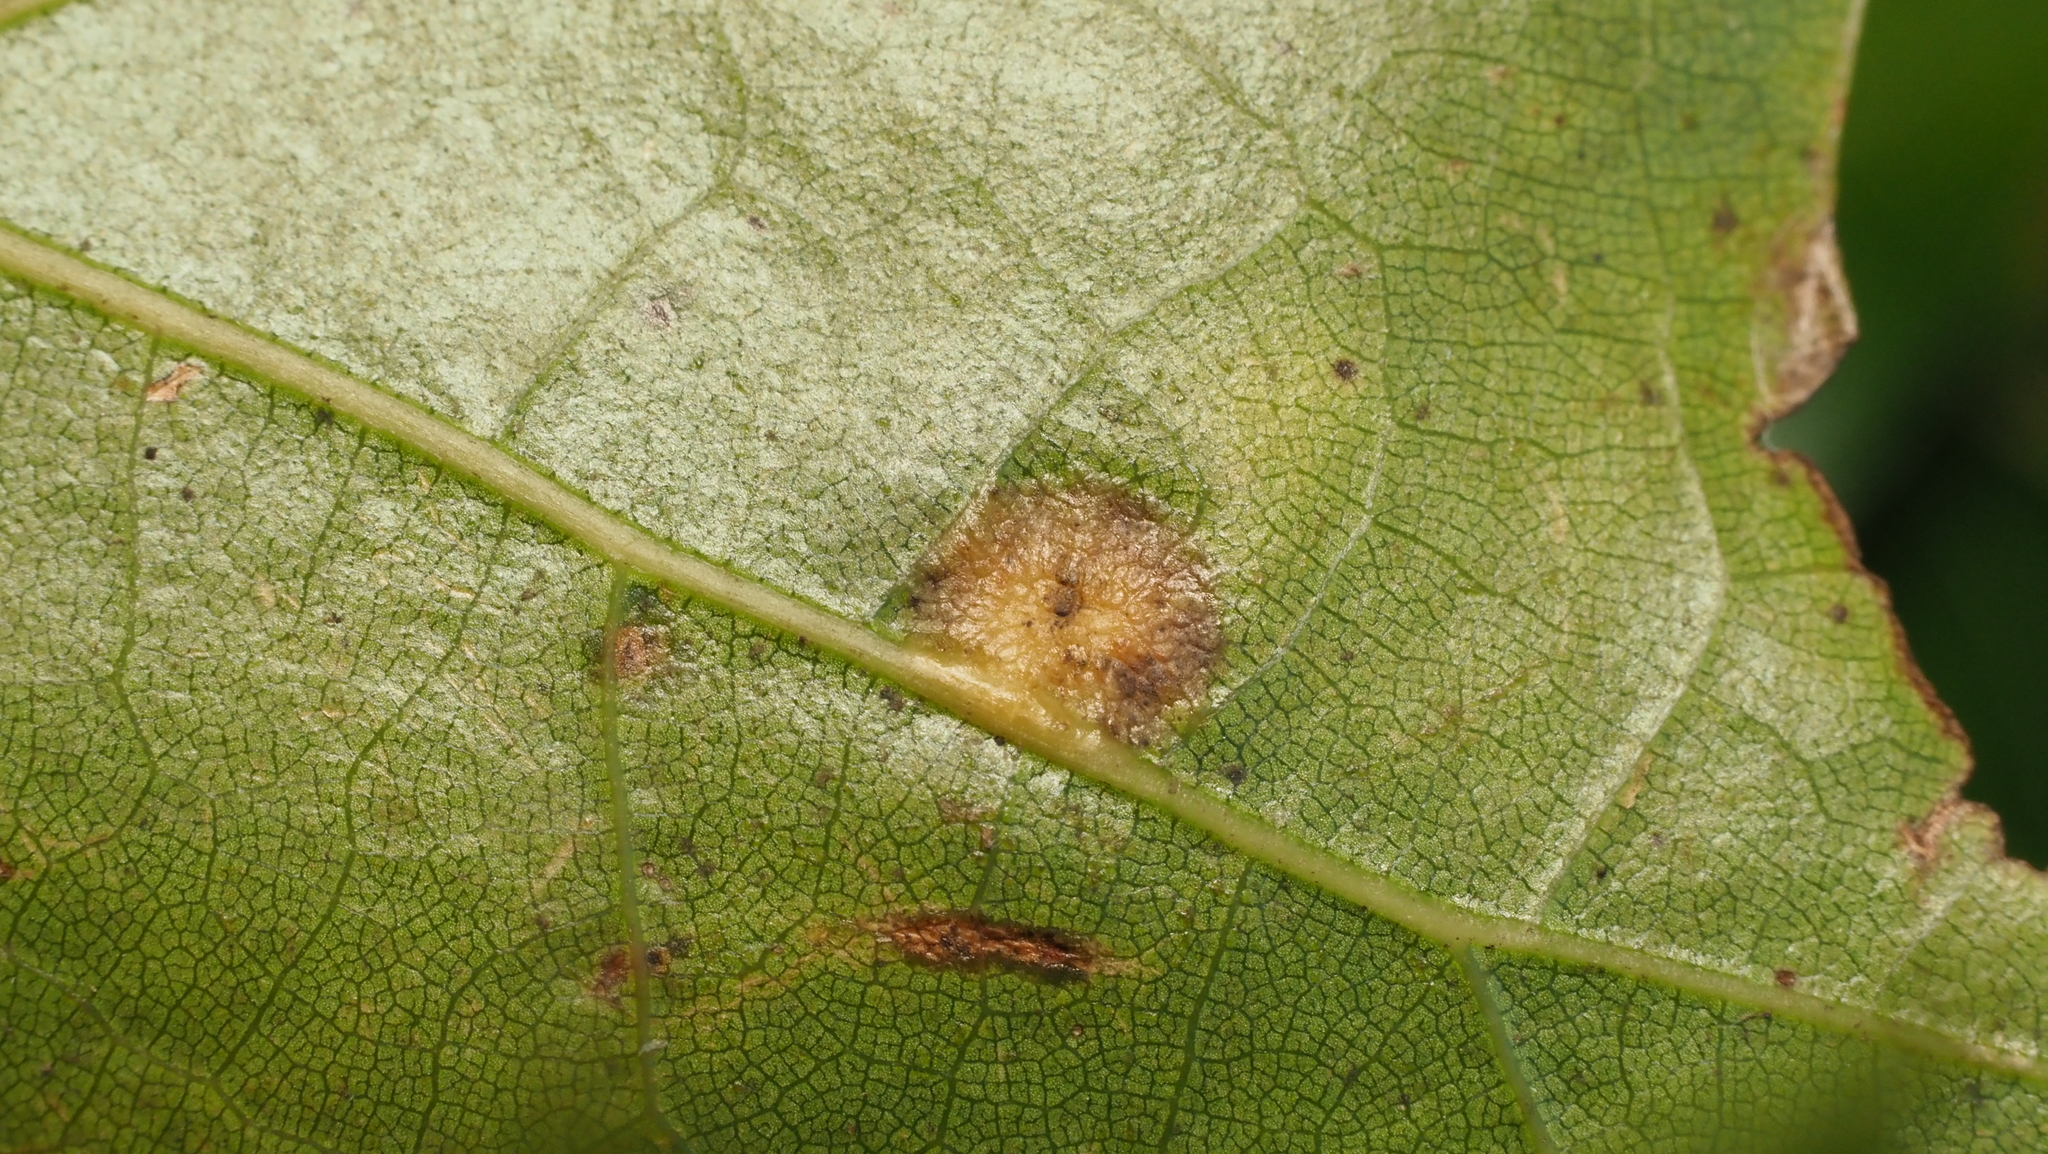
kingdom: Animalia
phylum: Arthropoda
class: Insecta
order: Diptera
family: Cecidomyiidae
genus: Polystepha
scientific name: Polystepha pilulae
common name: Oak leaf gall midge
